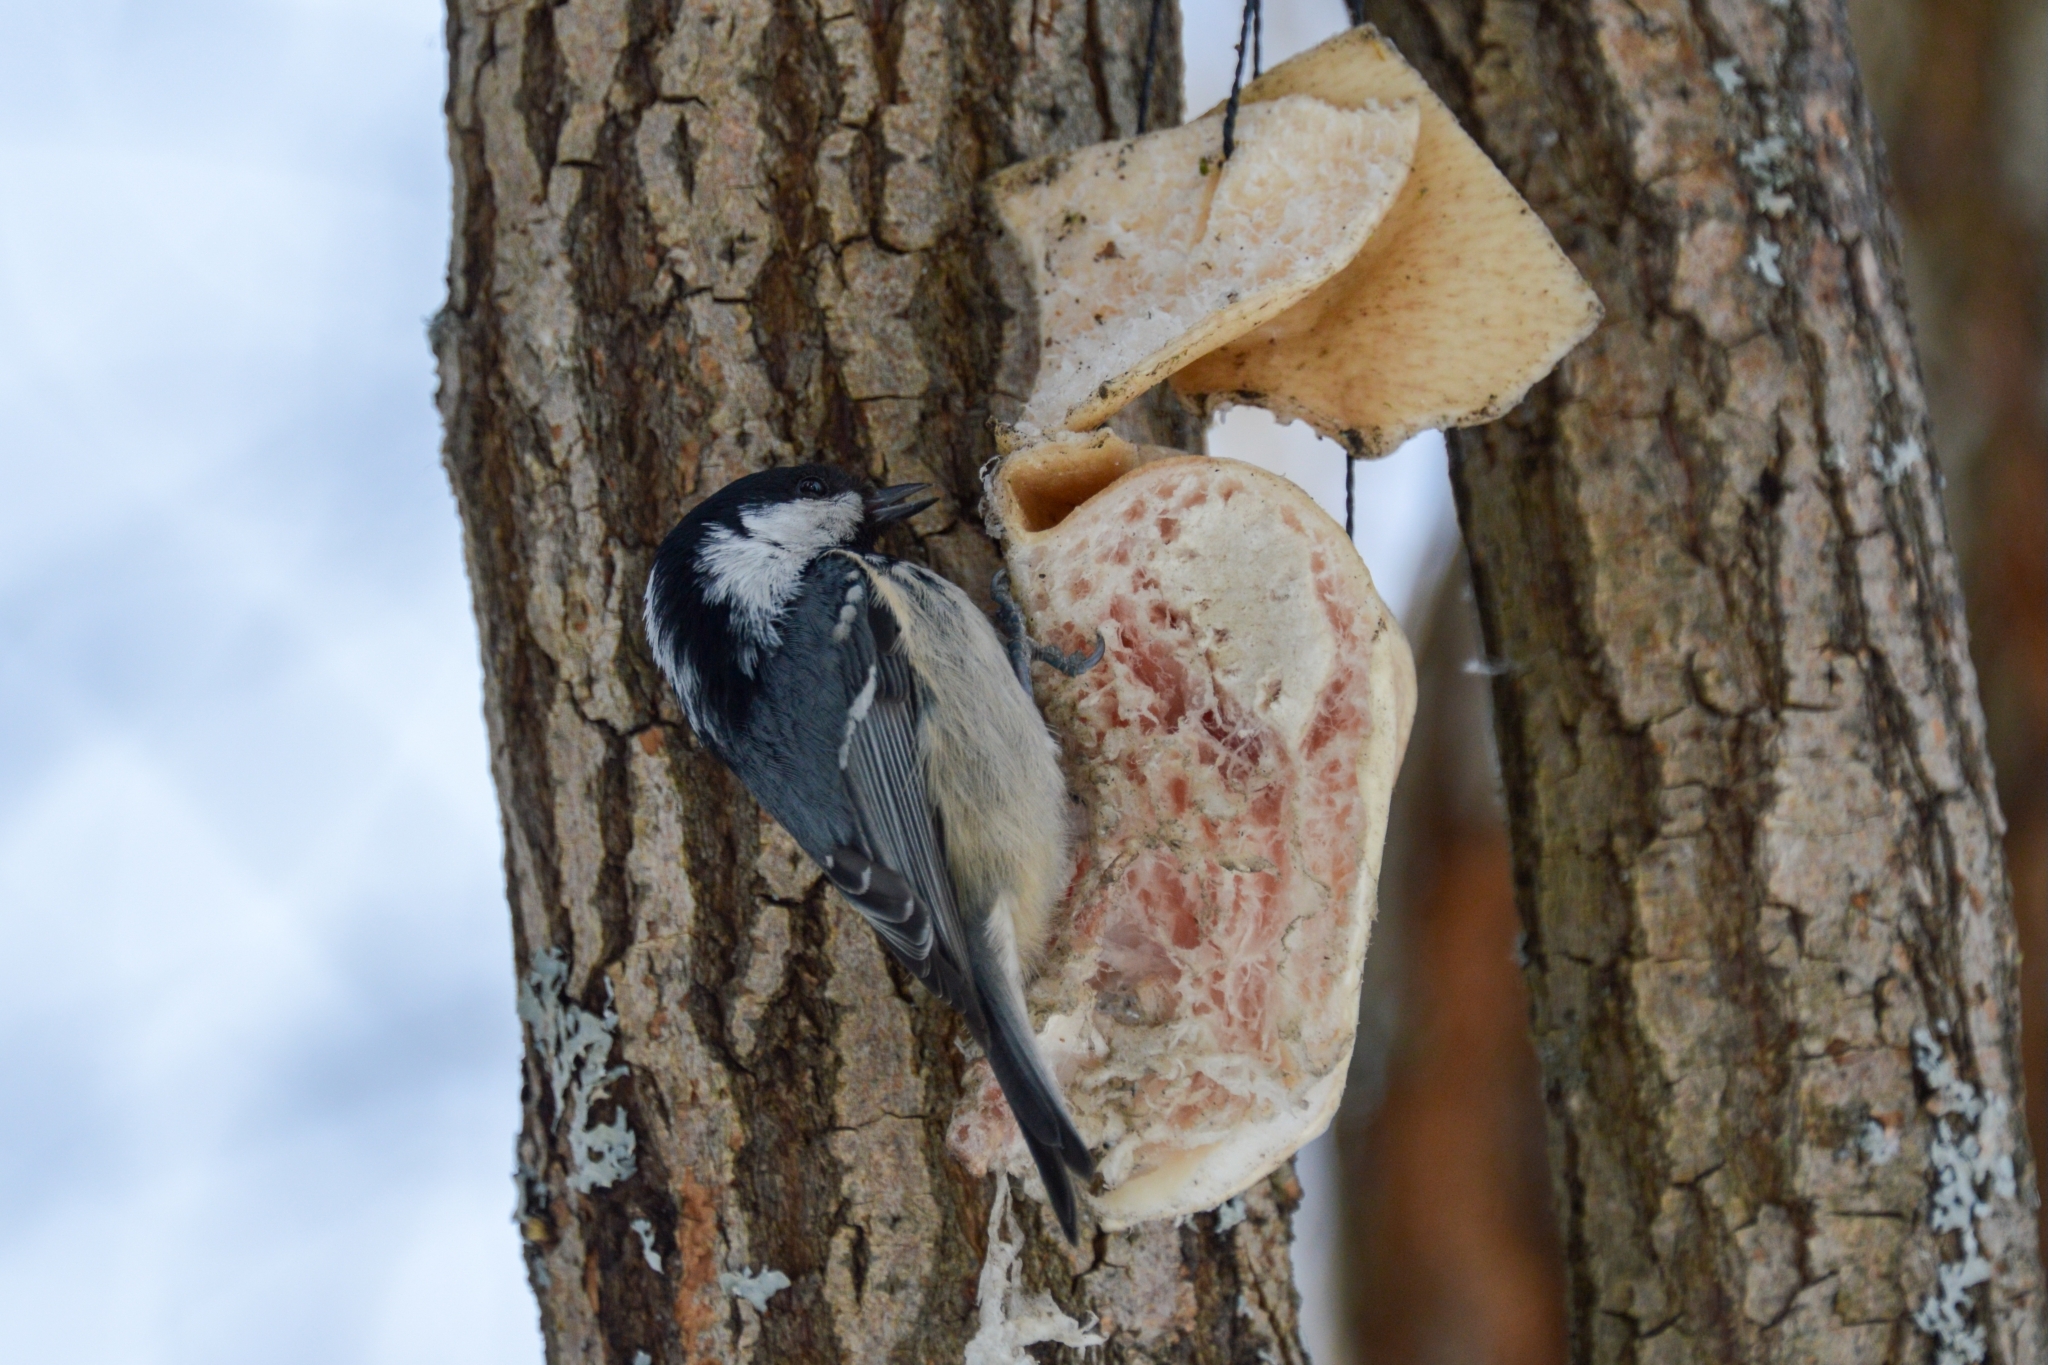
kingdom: Animalia
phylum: Chordata
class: Aves
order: Passeriformes
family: Paridae
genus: Periparus
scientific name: Periparus ater
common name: Coal tit
